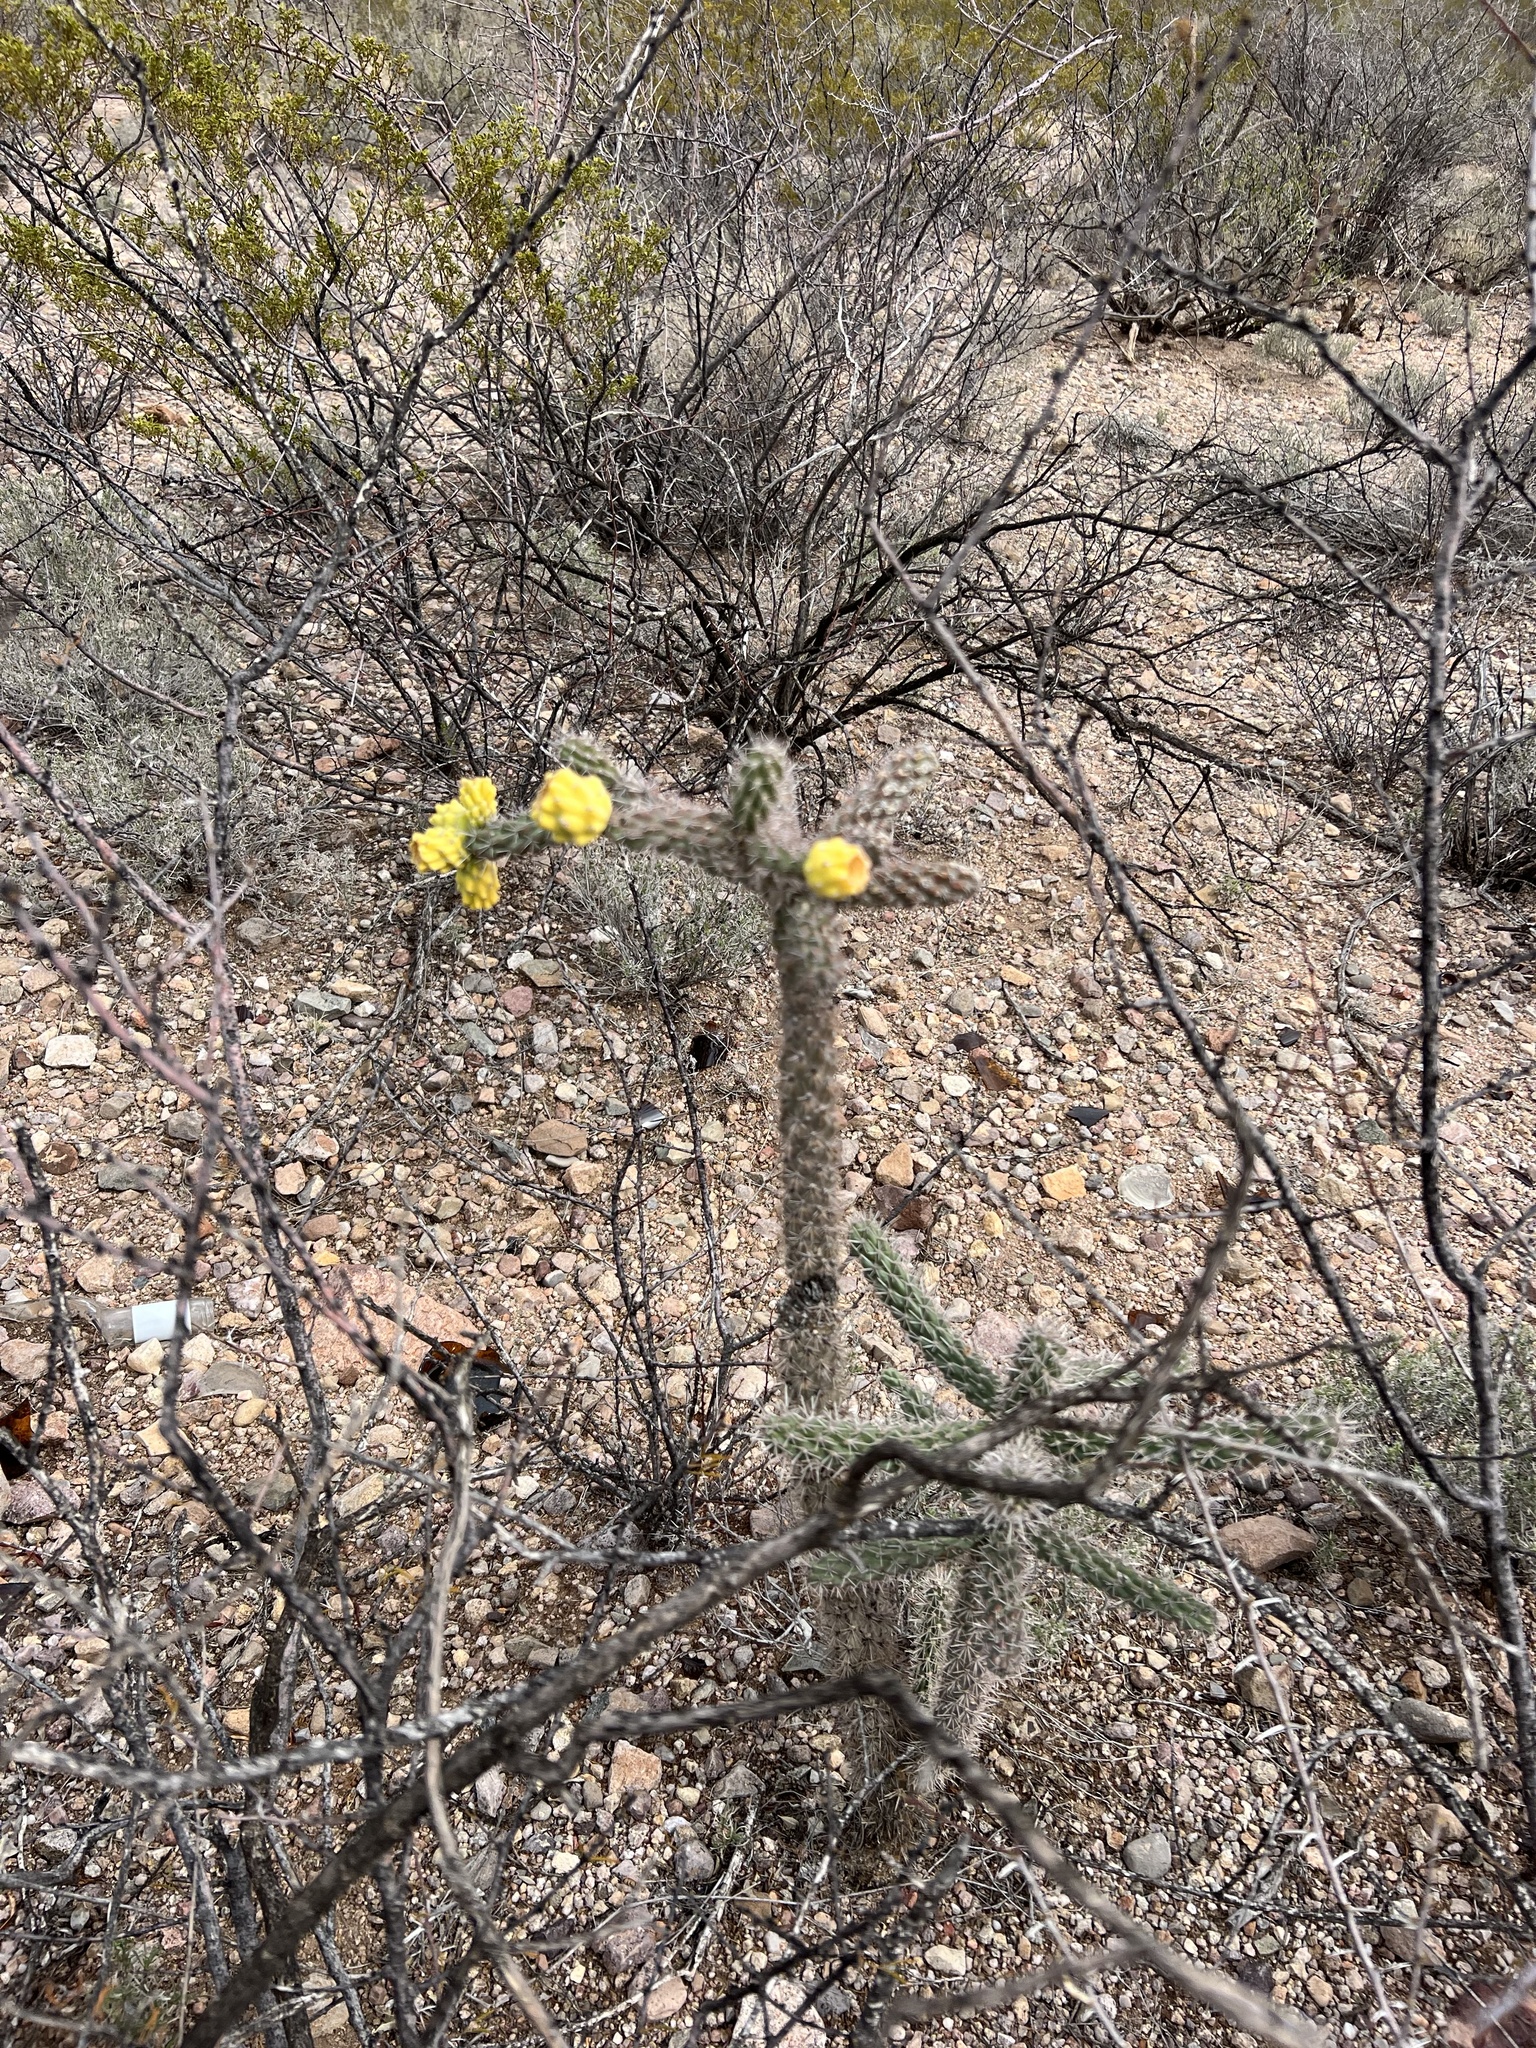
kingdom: Plantae
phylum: Tracheophyta
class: Magnoliopsida
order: Caryophyllales
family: Cactaceae
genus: Cylindropuntia
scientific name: Cylindropuntia imbricata
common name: Candelabrum cactus
